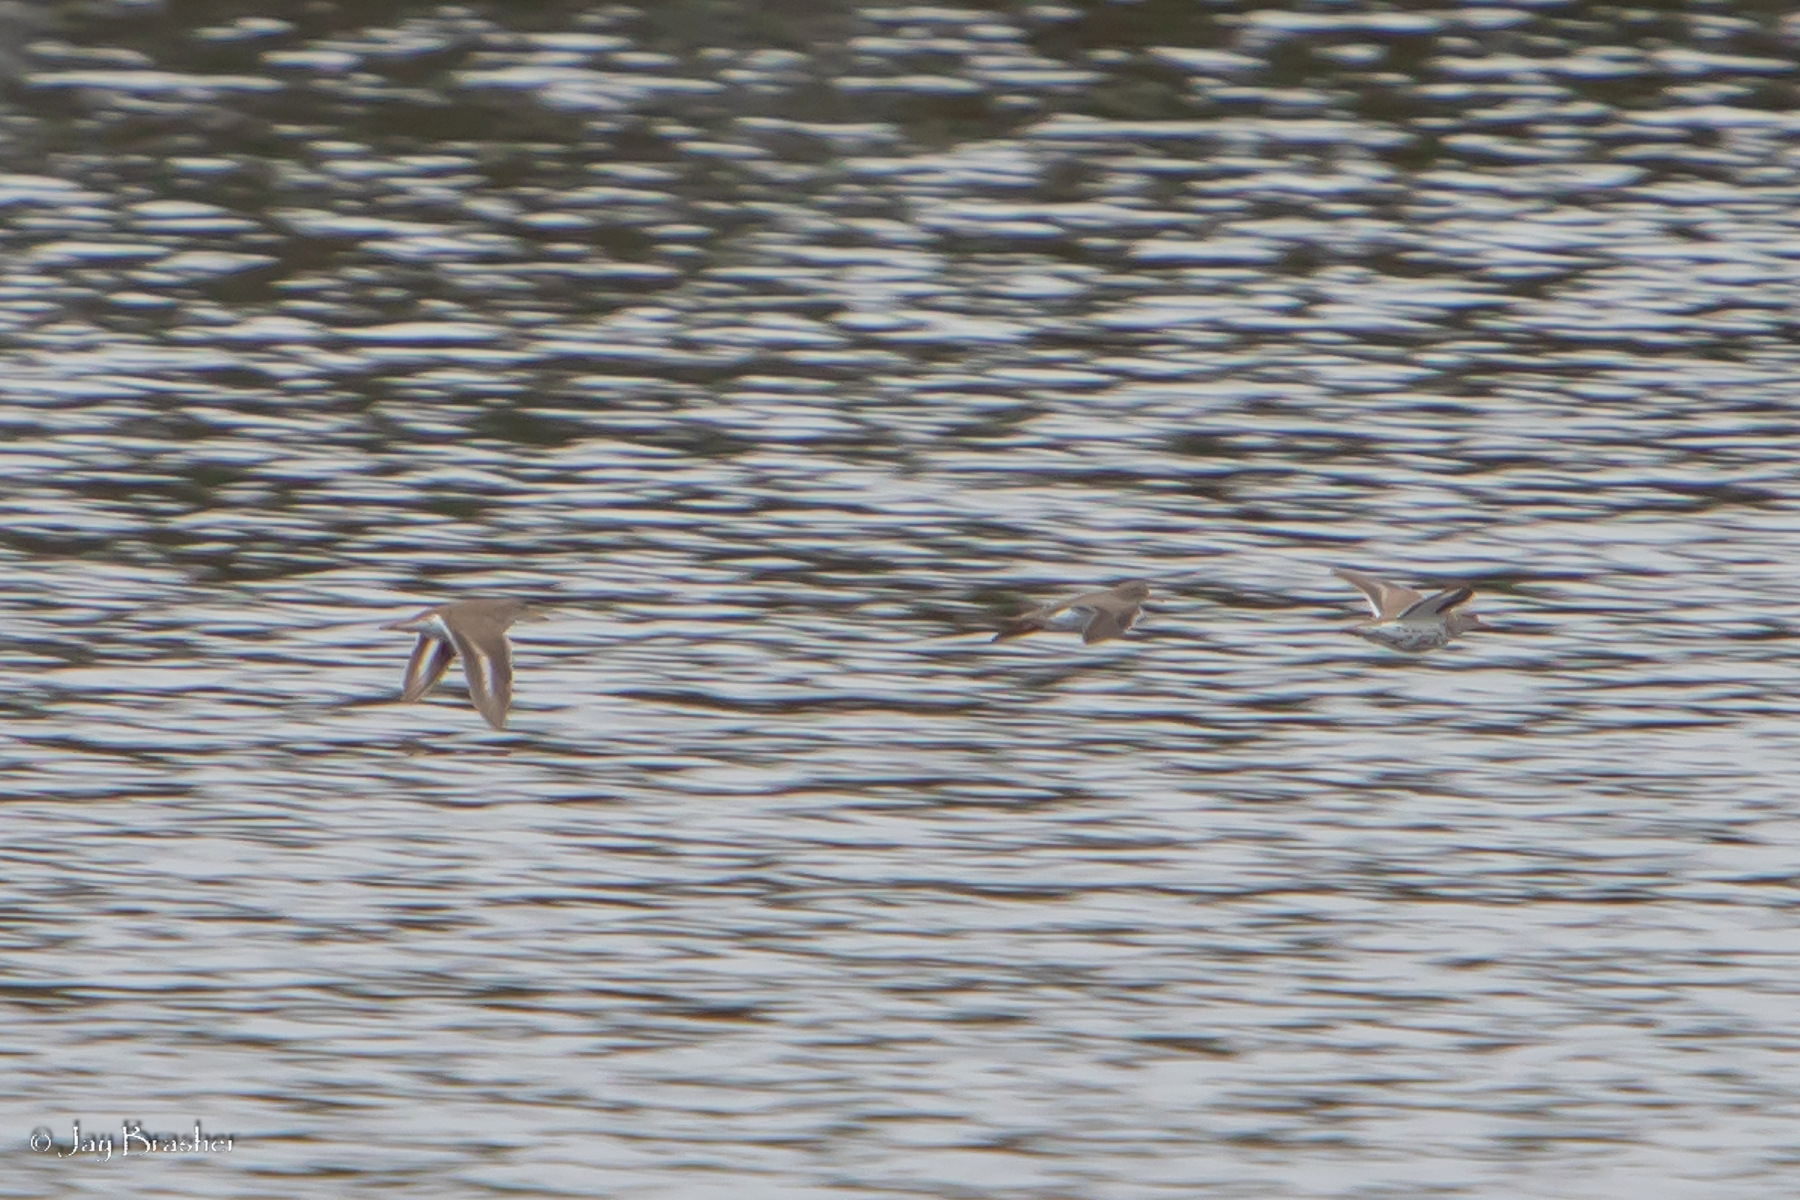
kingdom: Animalia
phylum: Chordata
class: Aves
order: Charadriiformes
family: Scolopacidae
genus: Actitis
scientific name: Actitis macularius
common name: Spotted sandpiper
